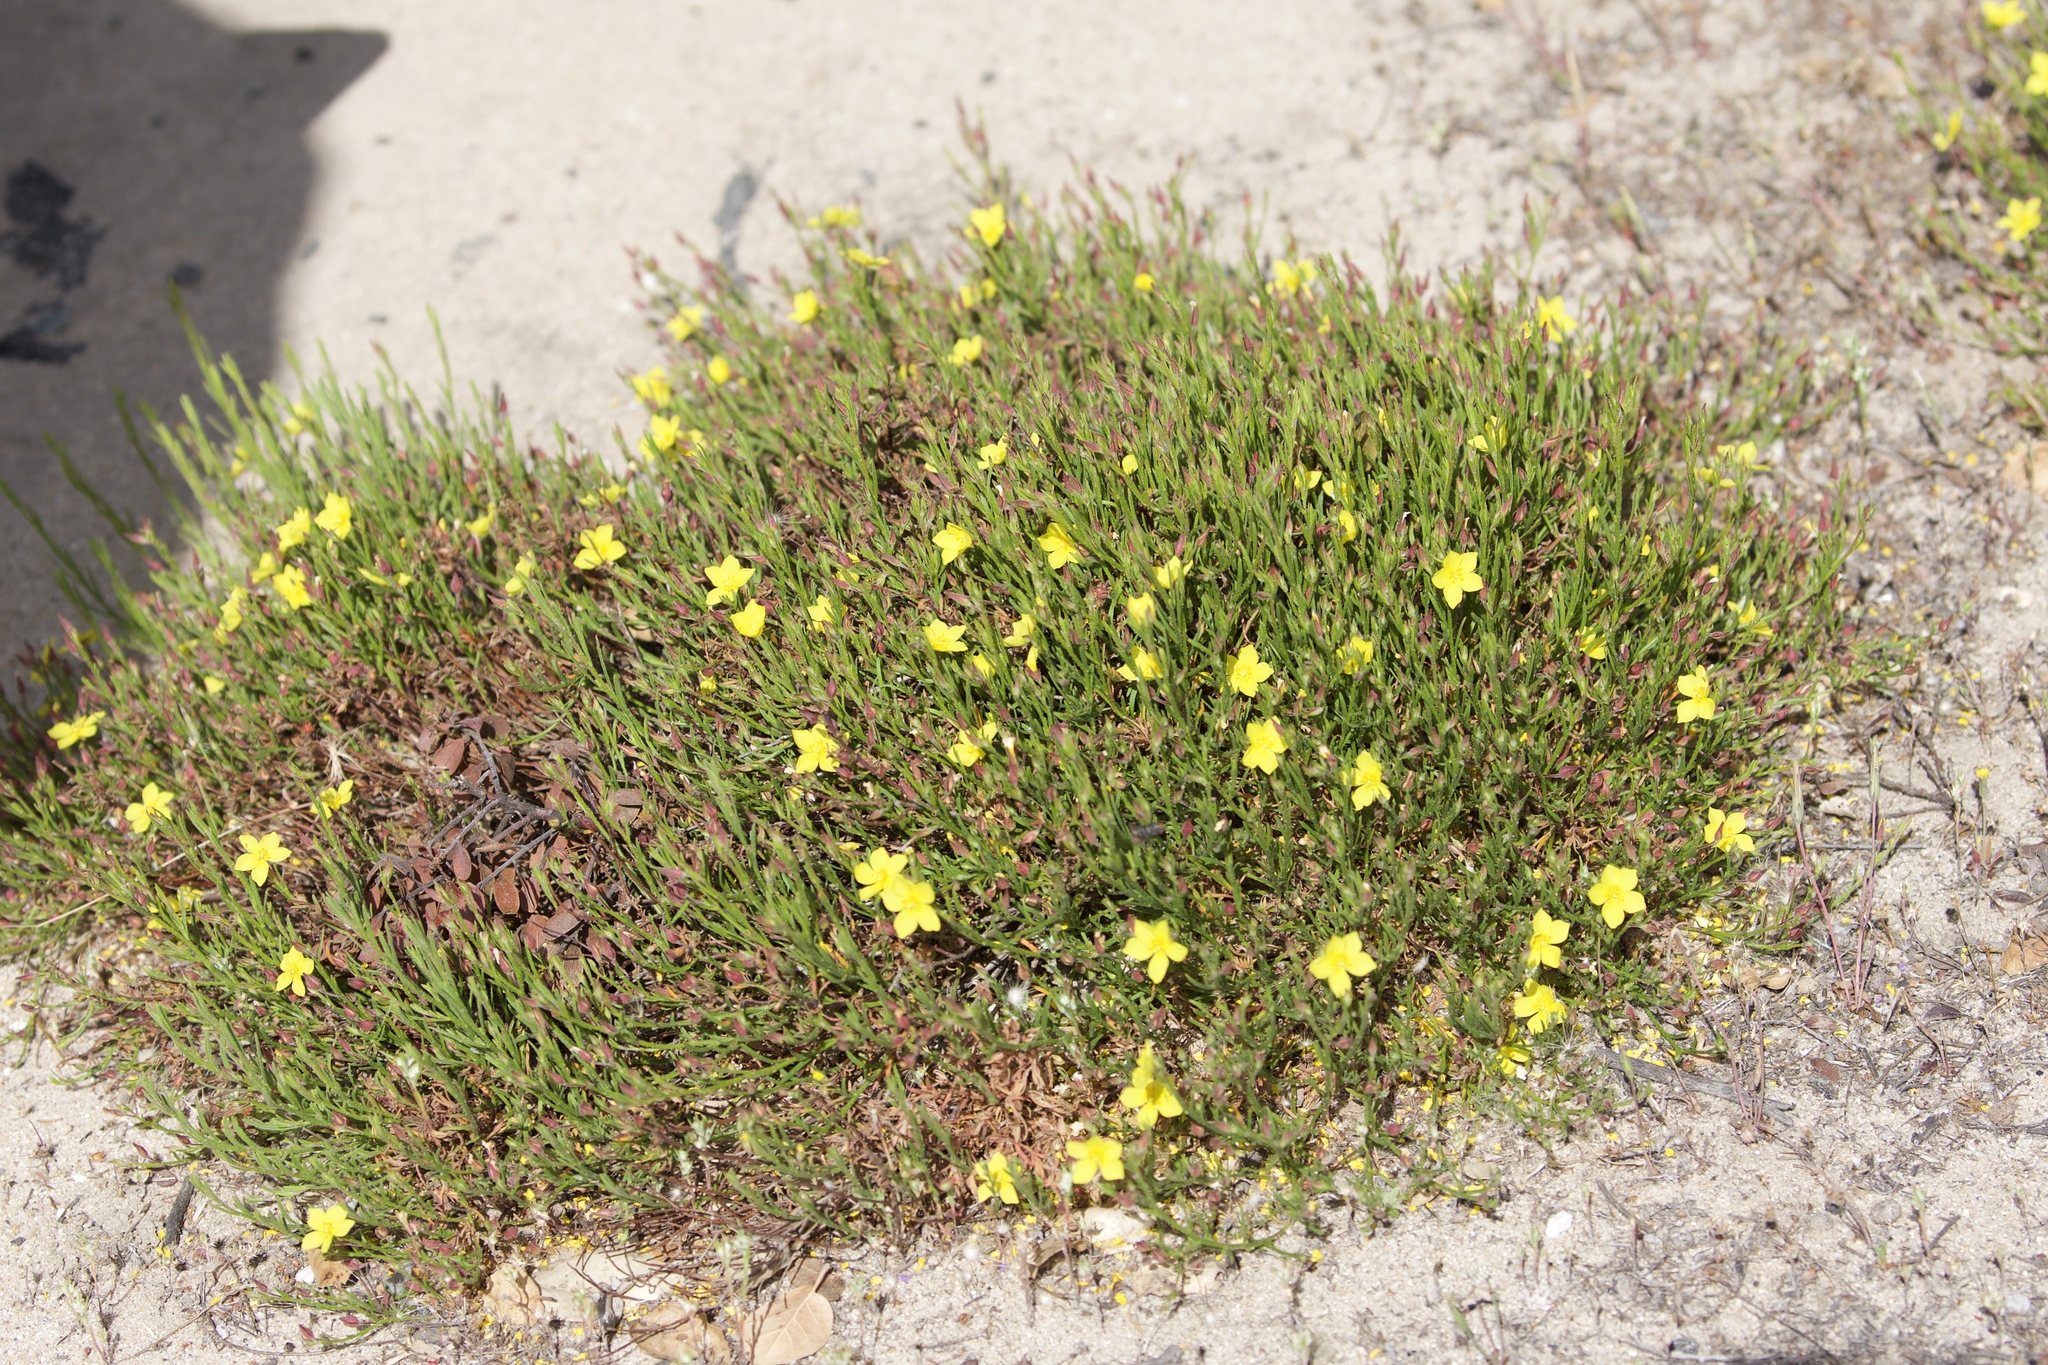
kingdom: Plantae
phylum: Tracheophyta
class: Magnoliopsida
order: Malvales
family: Cistaceae
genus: Crocanthemum
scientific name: Crocanthemum scoparium
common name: Broom-rose
